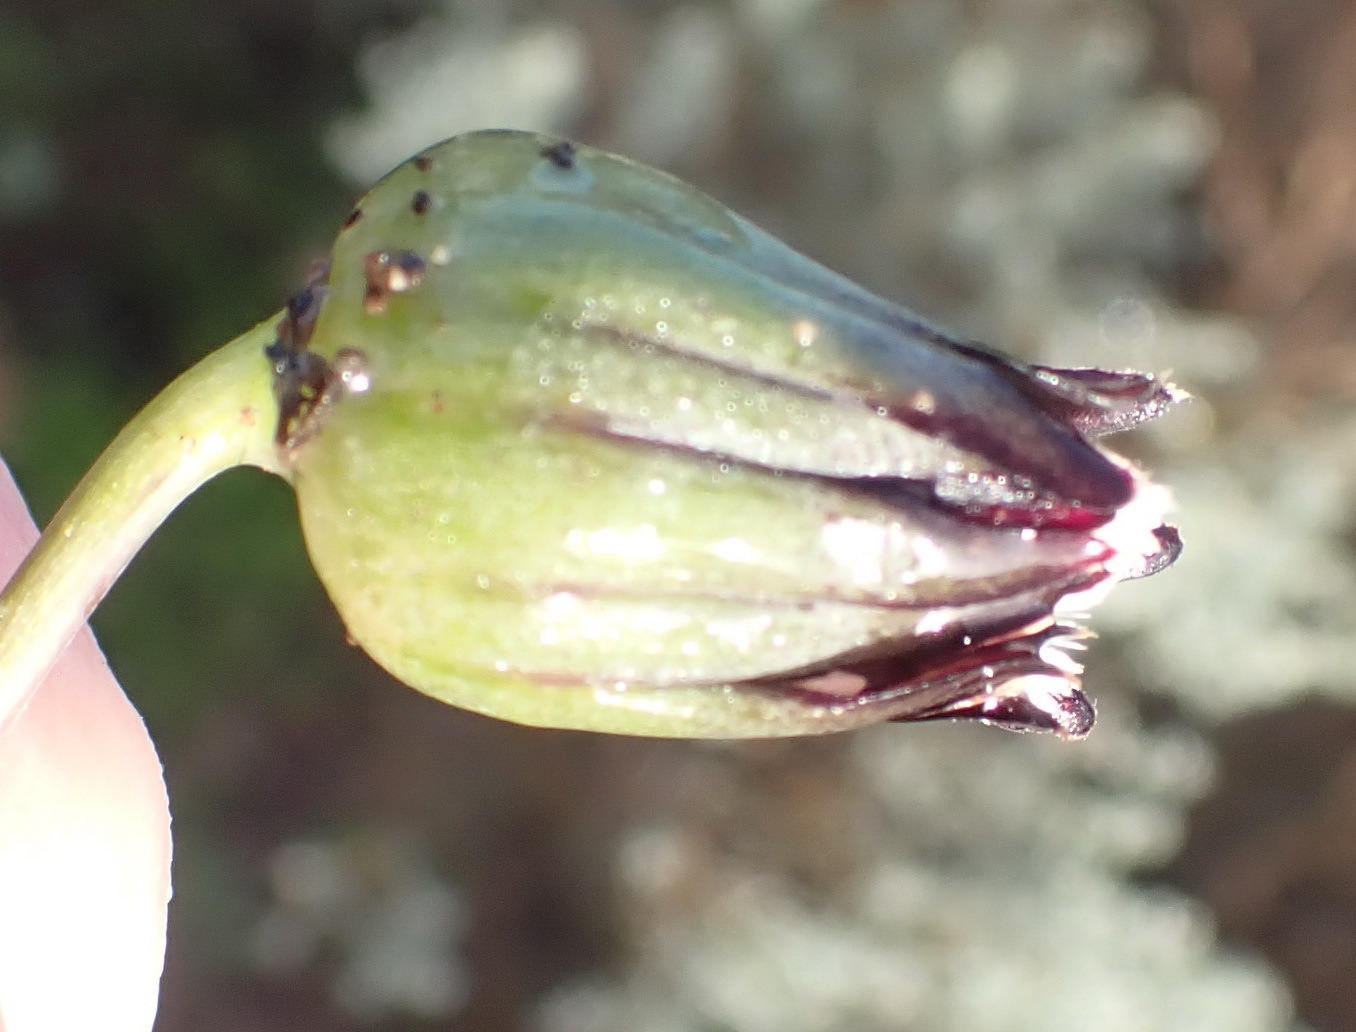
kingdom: Plantae
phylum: Tracheophyta
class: Magnoliopsida
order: Asterales
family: Asteraceae
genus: Othonna
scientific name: Othonna oleracea
